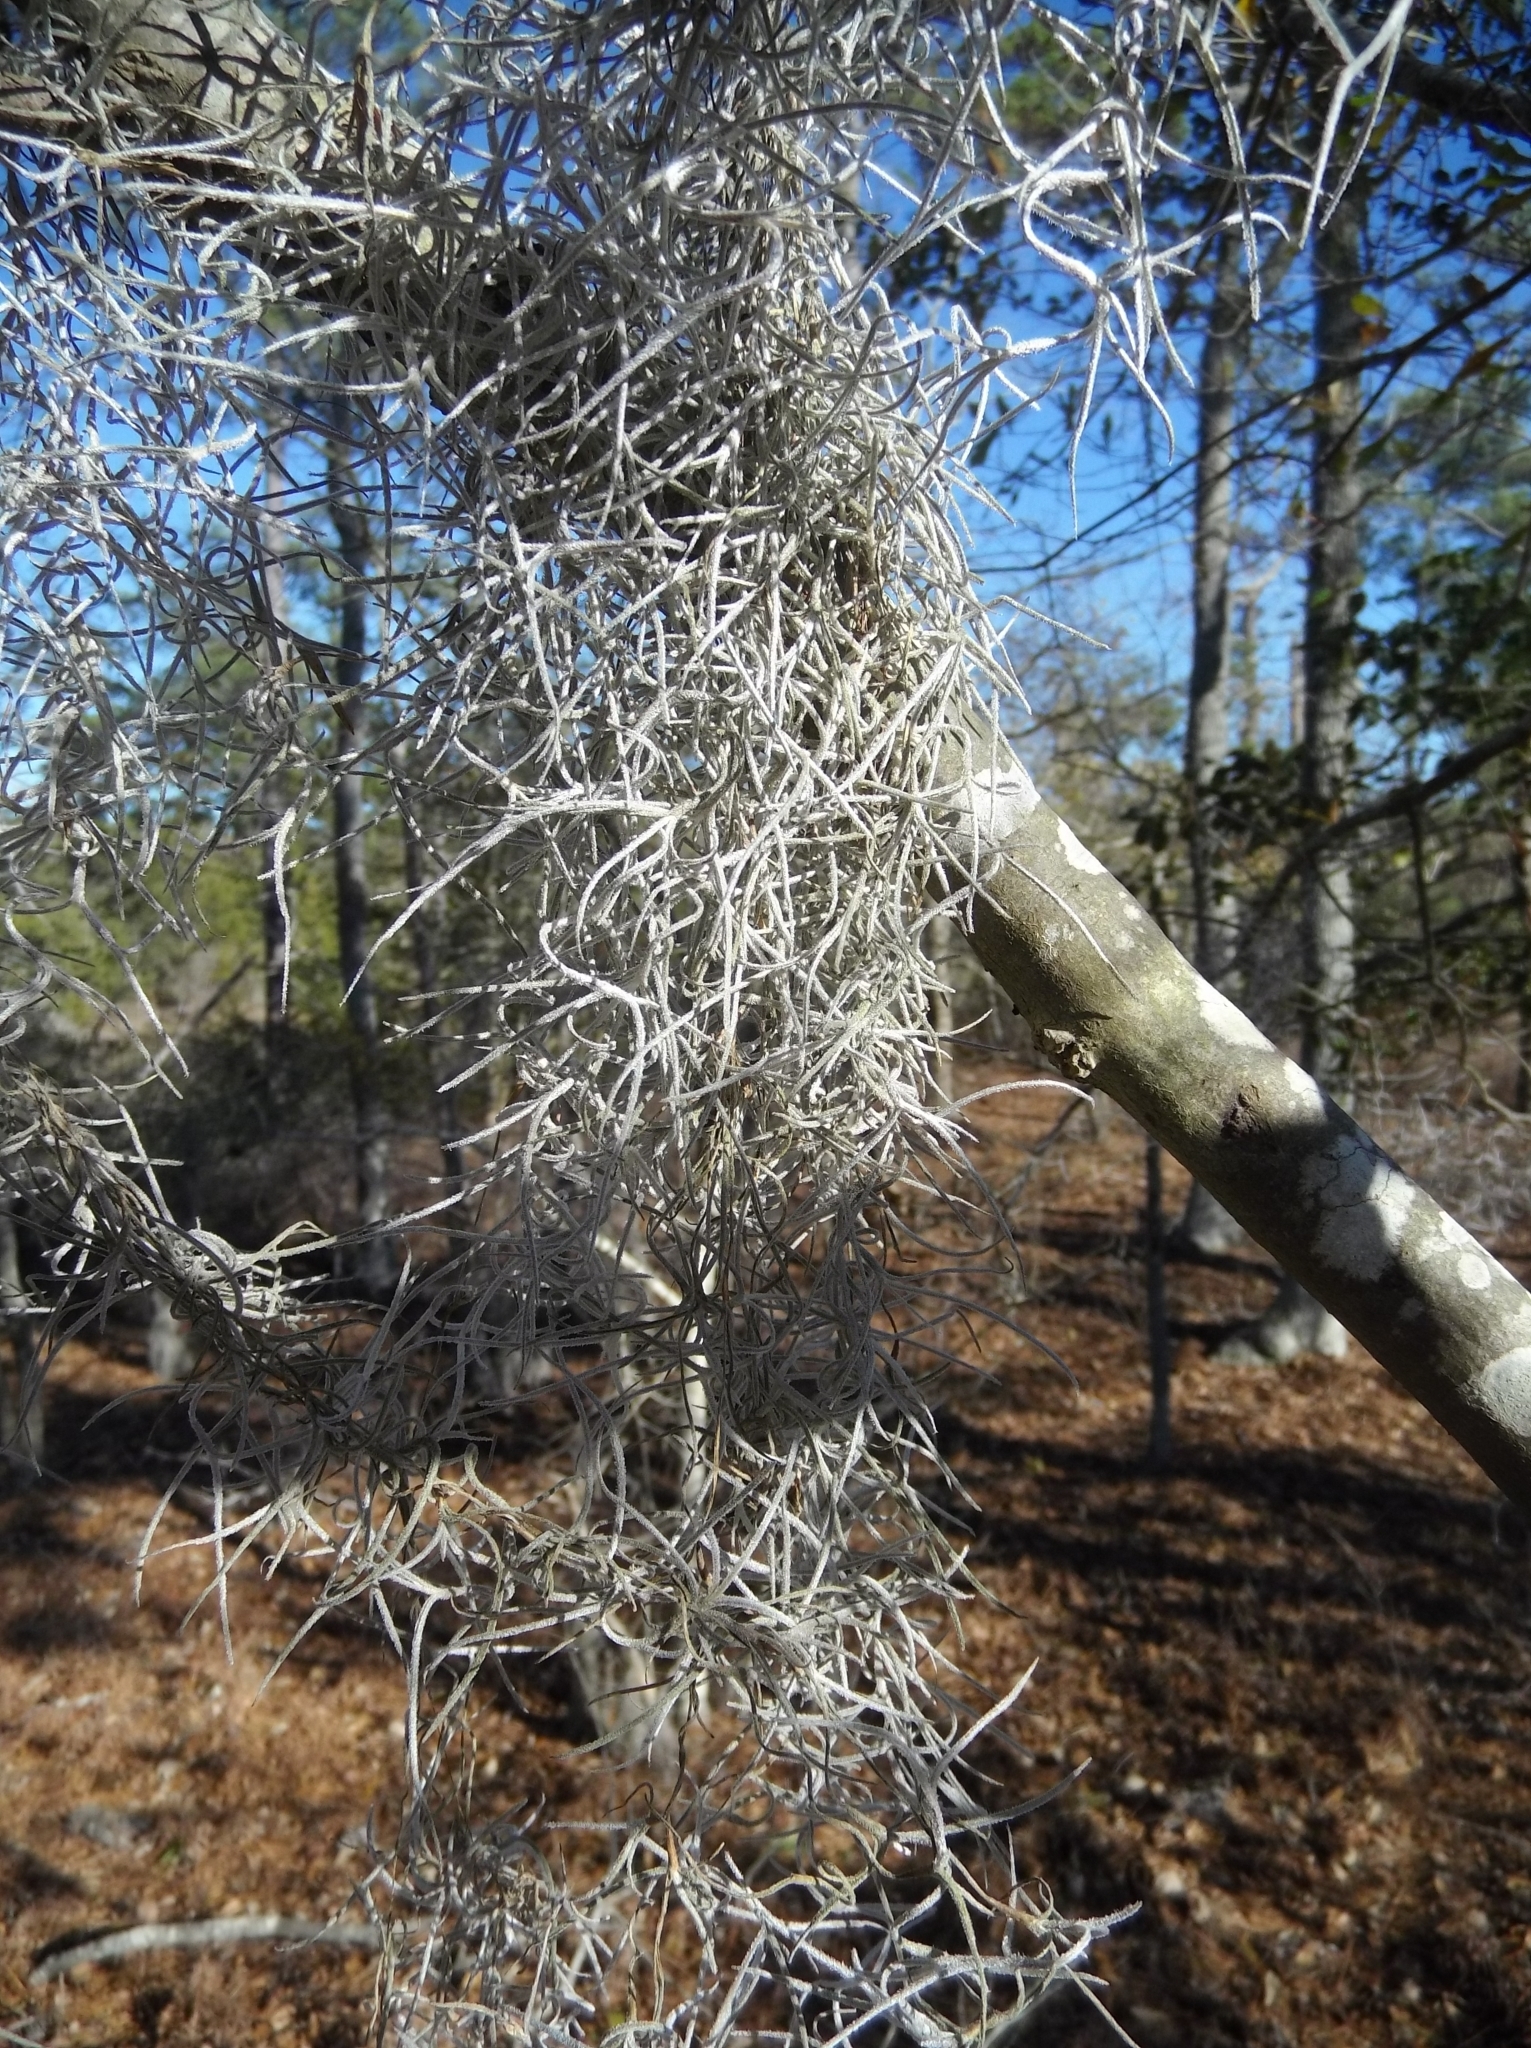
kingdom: Plantae
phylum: Tracheophyta
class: Liliopsida
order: Poales
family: Bromeliaceae
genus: Tillandsia
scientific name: Tillandsia usneoides
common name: Spanish moss
